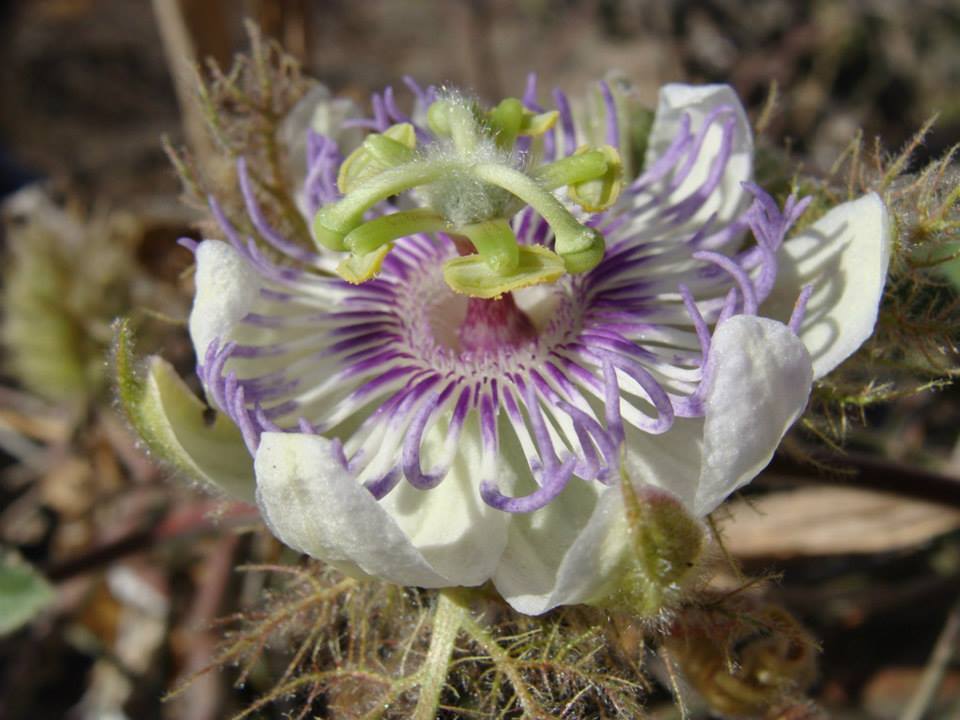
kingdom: Plantae
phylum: Tracheophyta
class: Magnoliopsida
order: Malpighiales
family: Passifloraceae
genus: Passiflora
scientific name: Passiflora pentaschista
